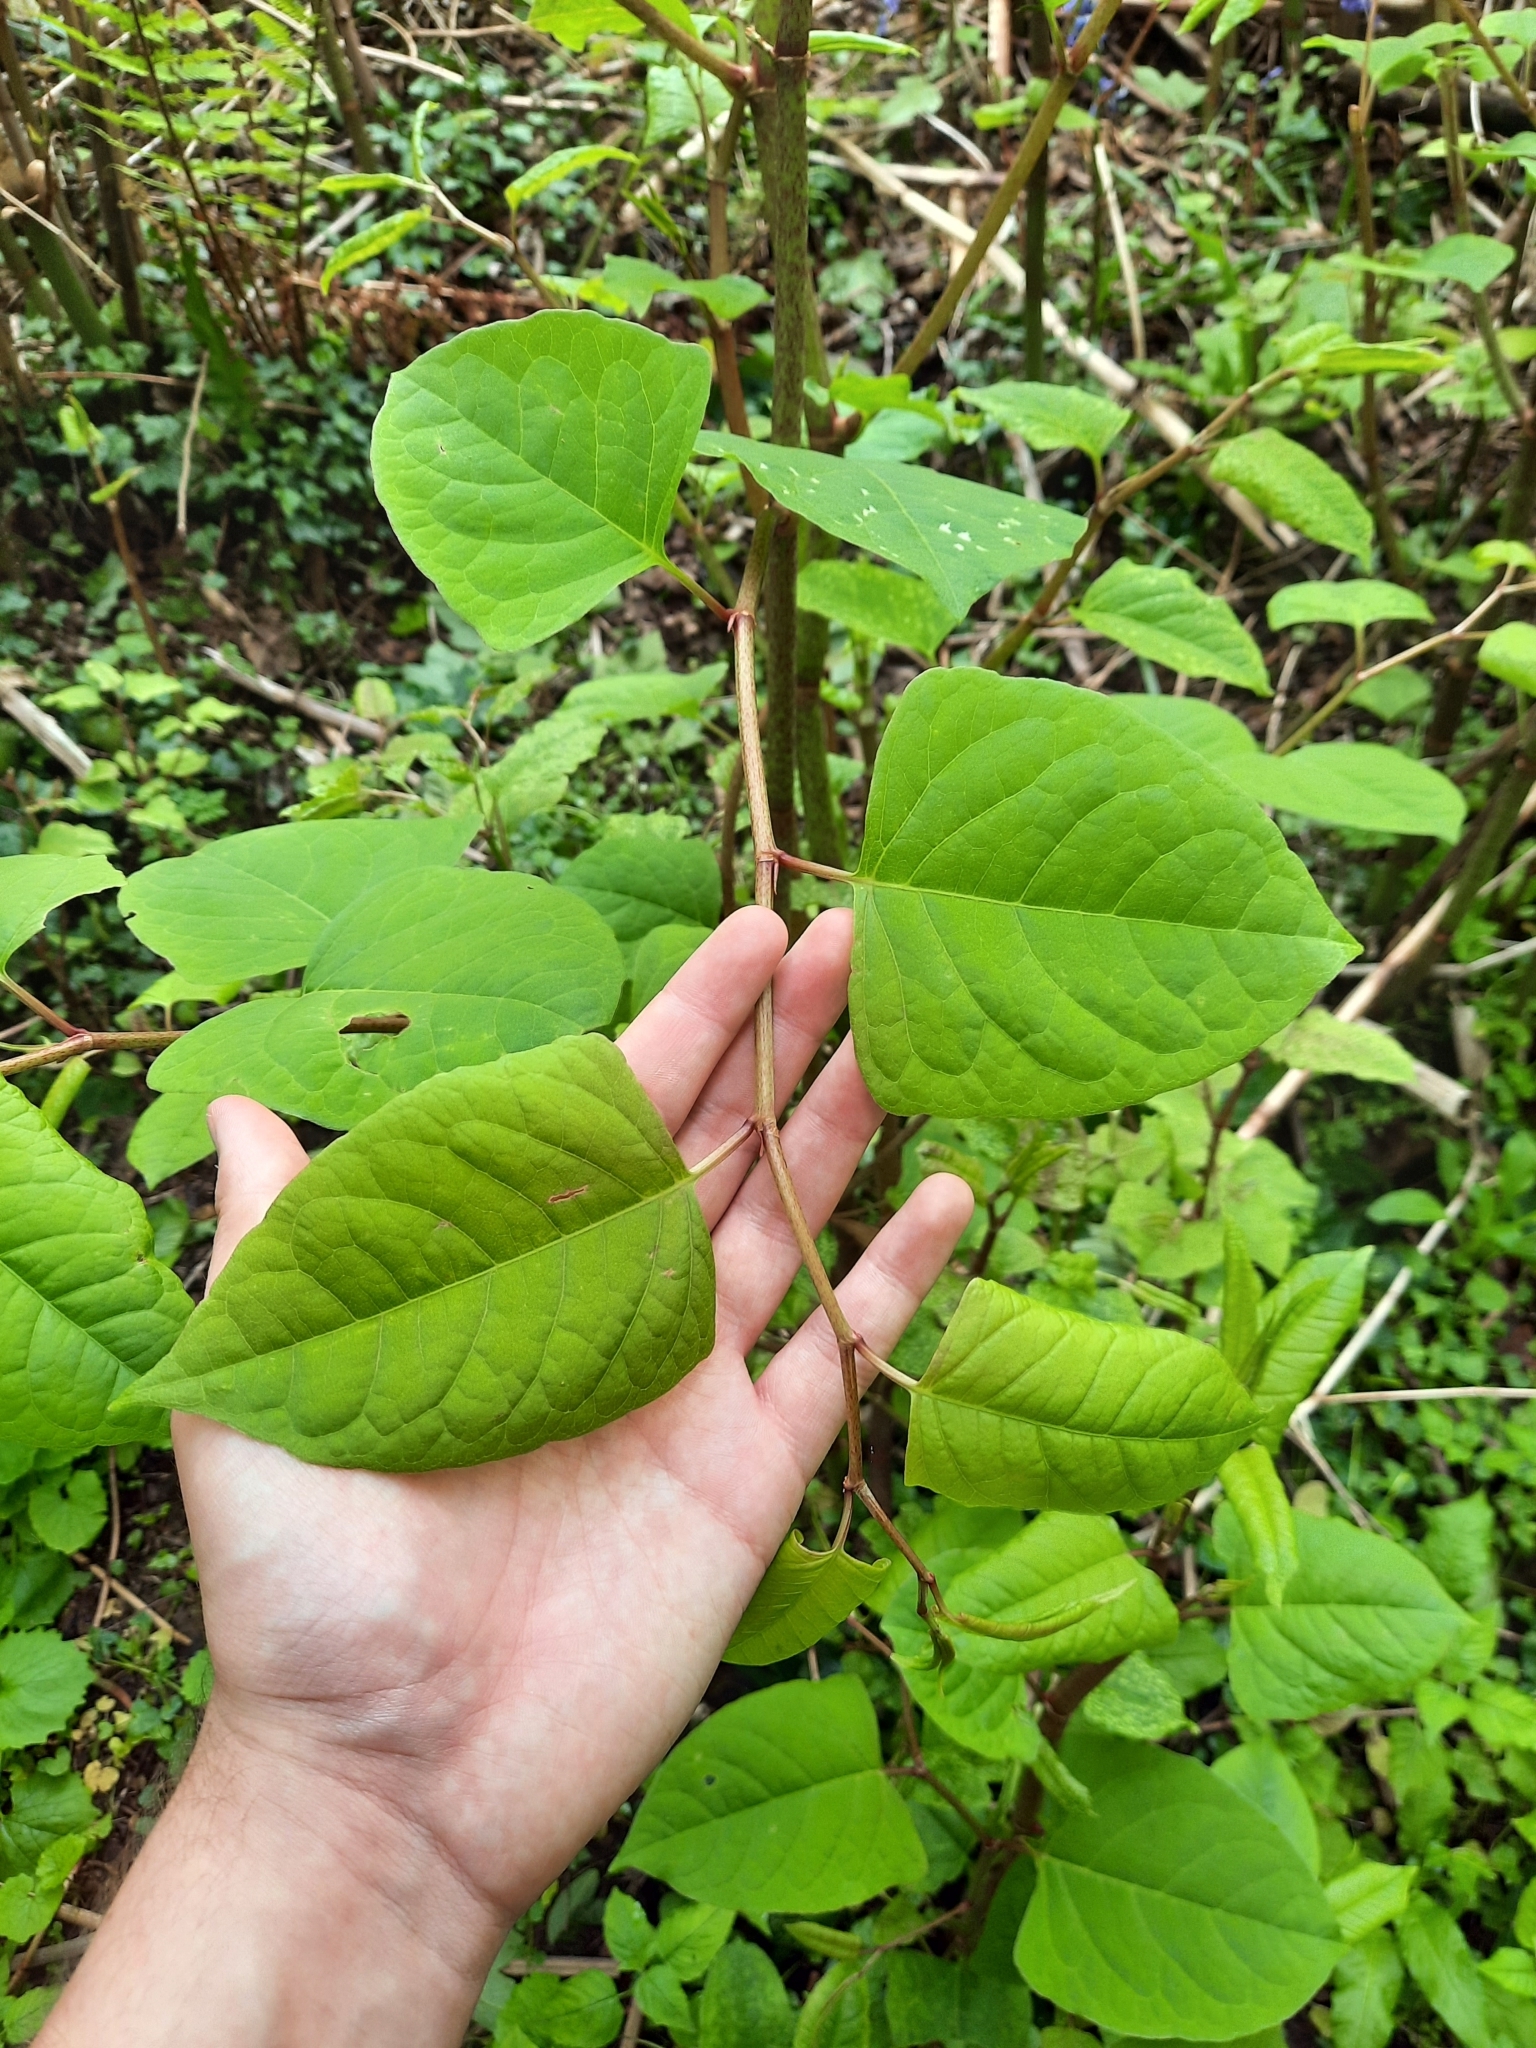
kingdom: Plantae
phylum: Tracheophyta
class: Magnoliopsida
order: Caryophyllales
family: Polygonaceae
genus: Reynoutria
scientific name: Reynoutria japonica
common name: Japanese knotweed
